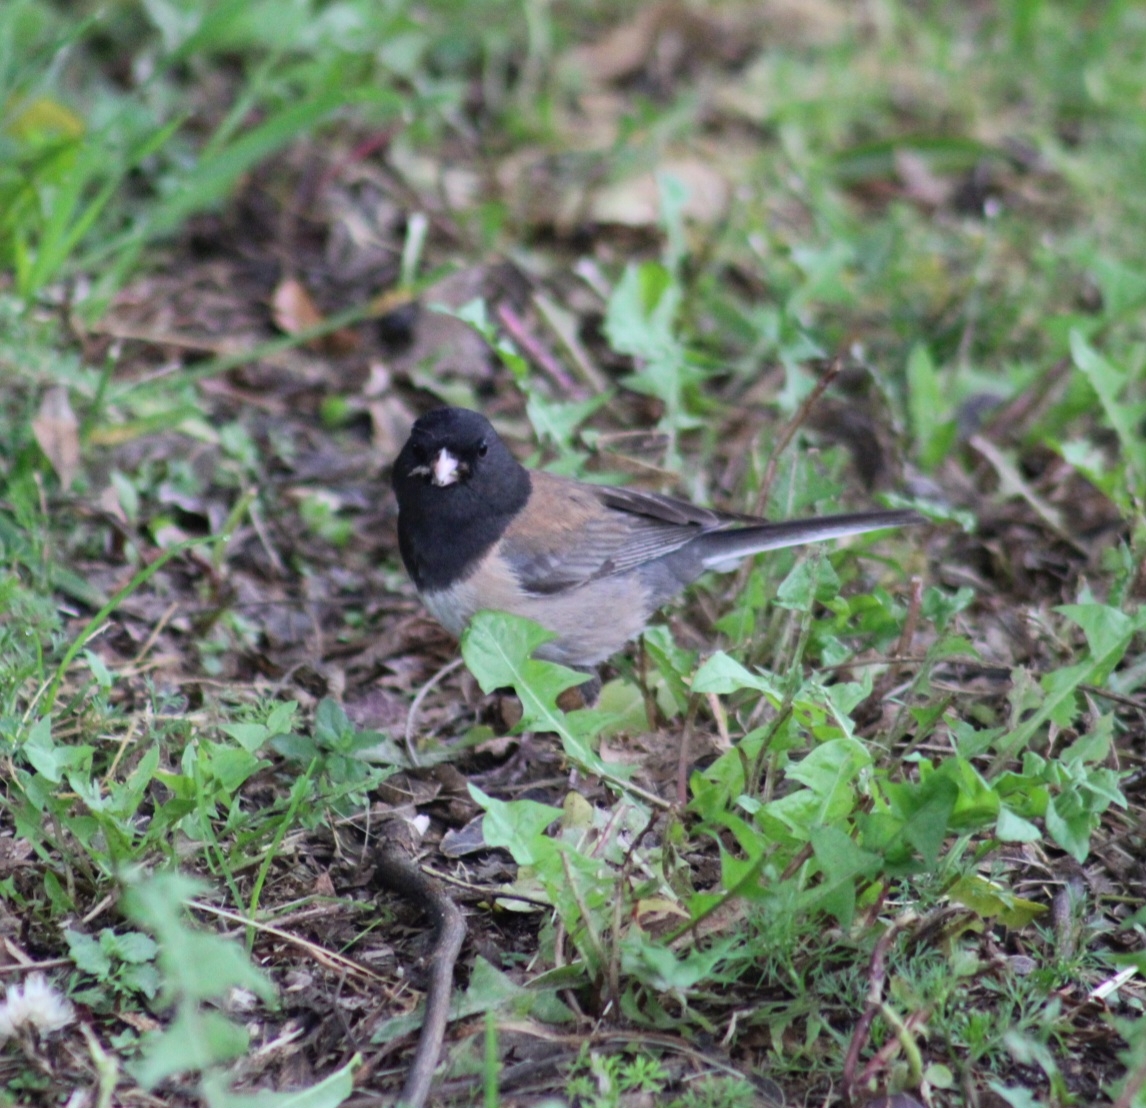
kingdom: Animalia
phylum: Chordata
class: Aves
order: Passeriformes
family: Passerellidae
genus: Junco
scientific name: Junco hyemalis
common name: Dark-eyed junco
